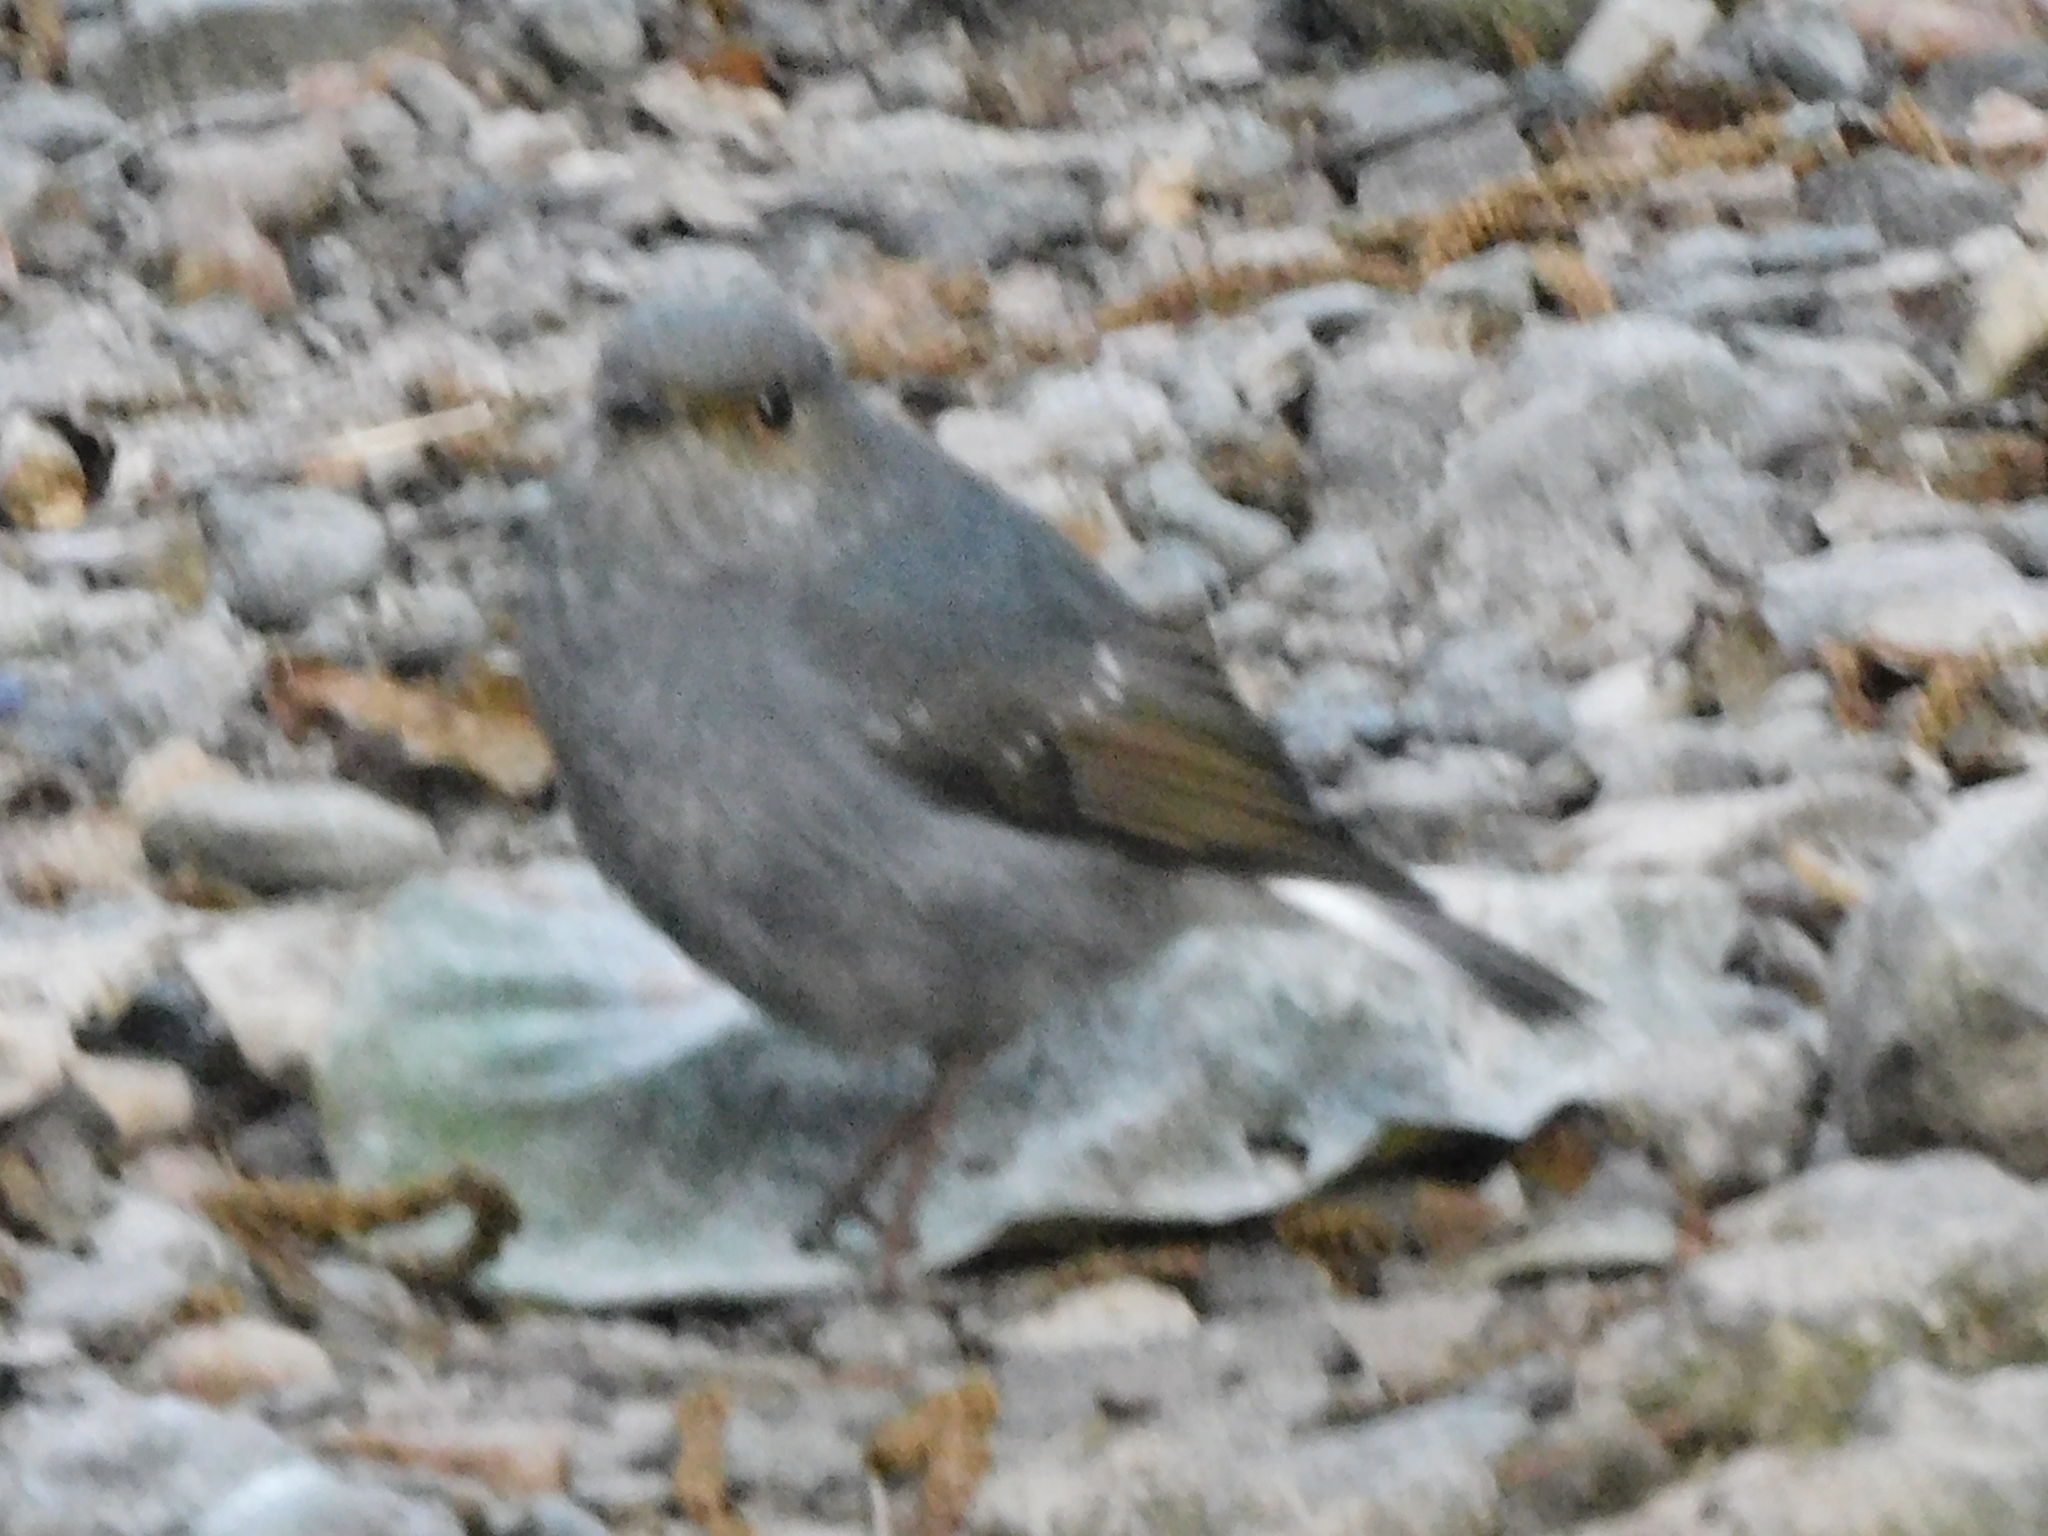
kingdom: Animalia
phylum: Chordata
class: Aves
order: Passeriformes
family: Muscicapidae
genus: Phoenicurus
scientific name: Phoenicurus fuliginosus
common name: Plumbeous water redstart
